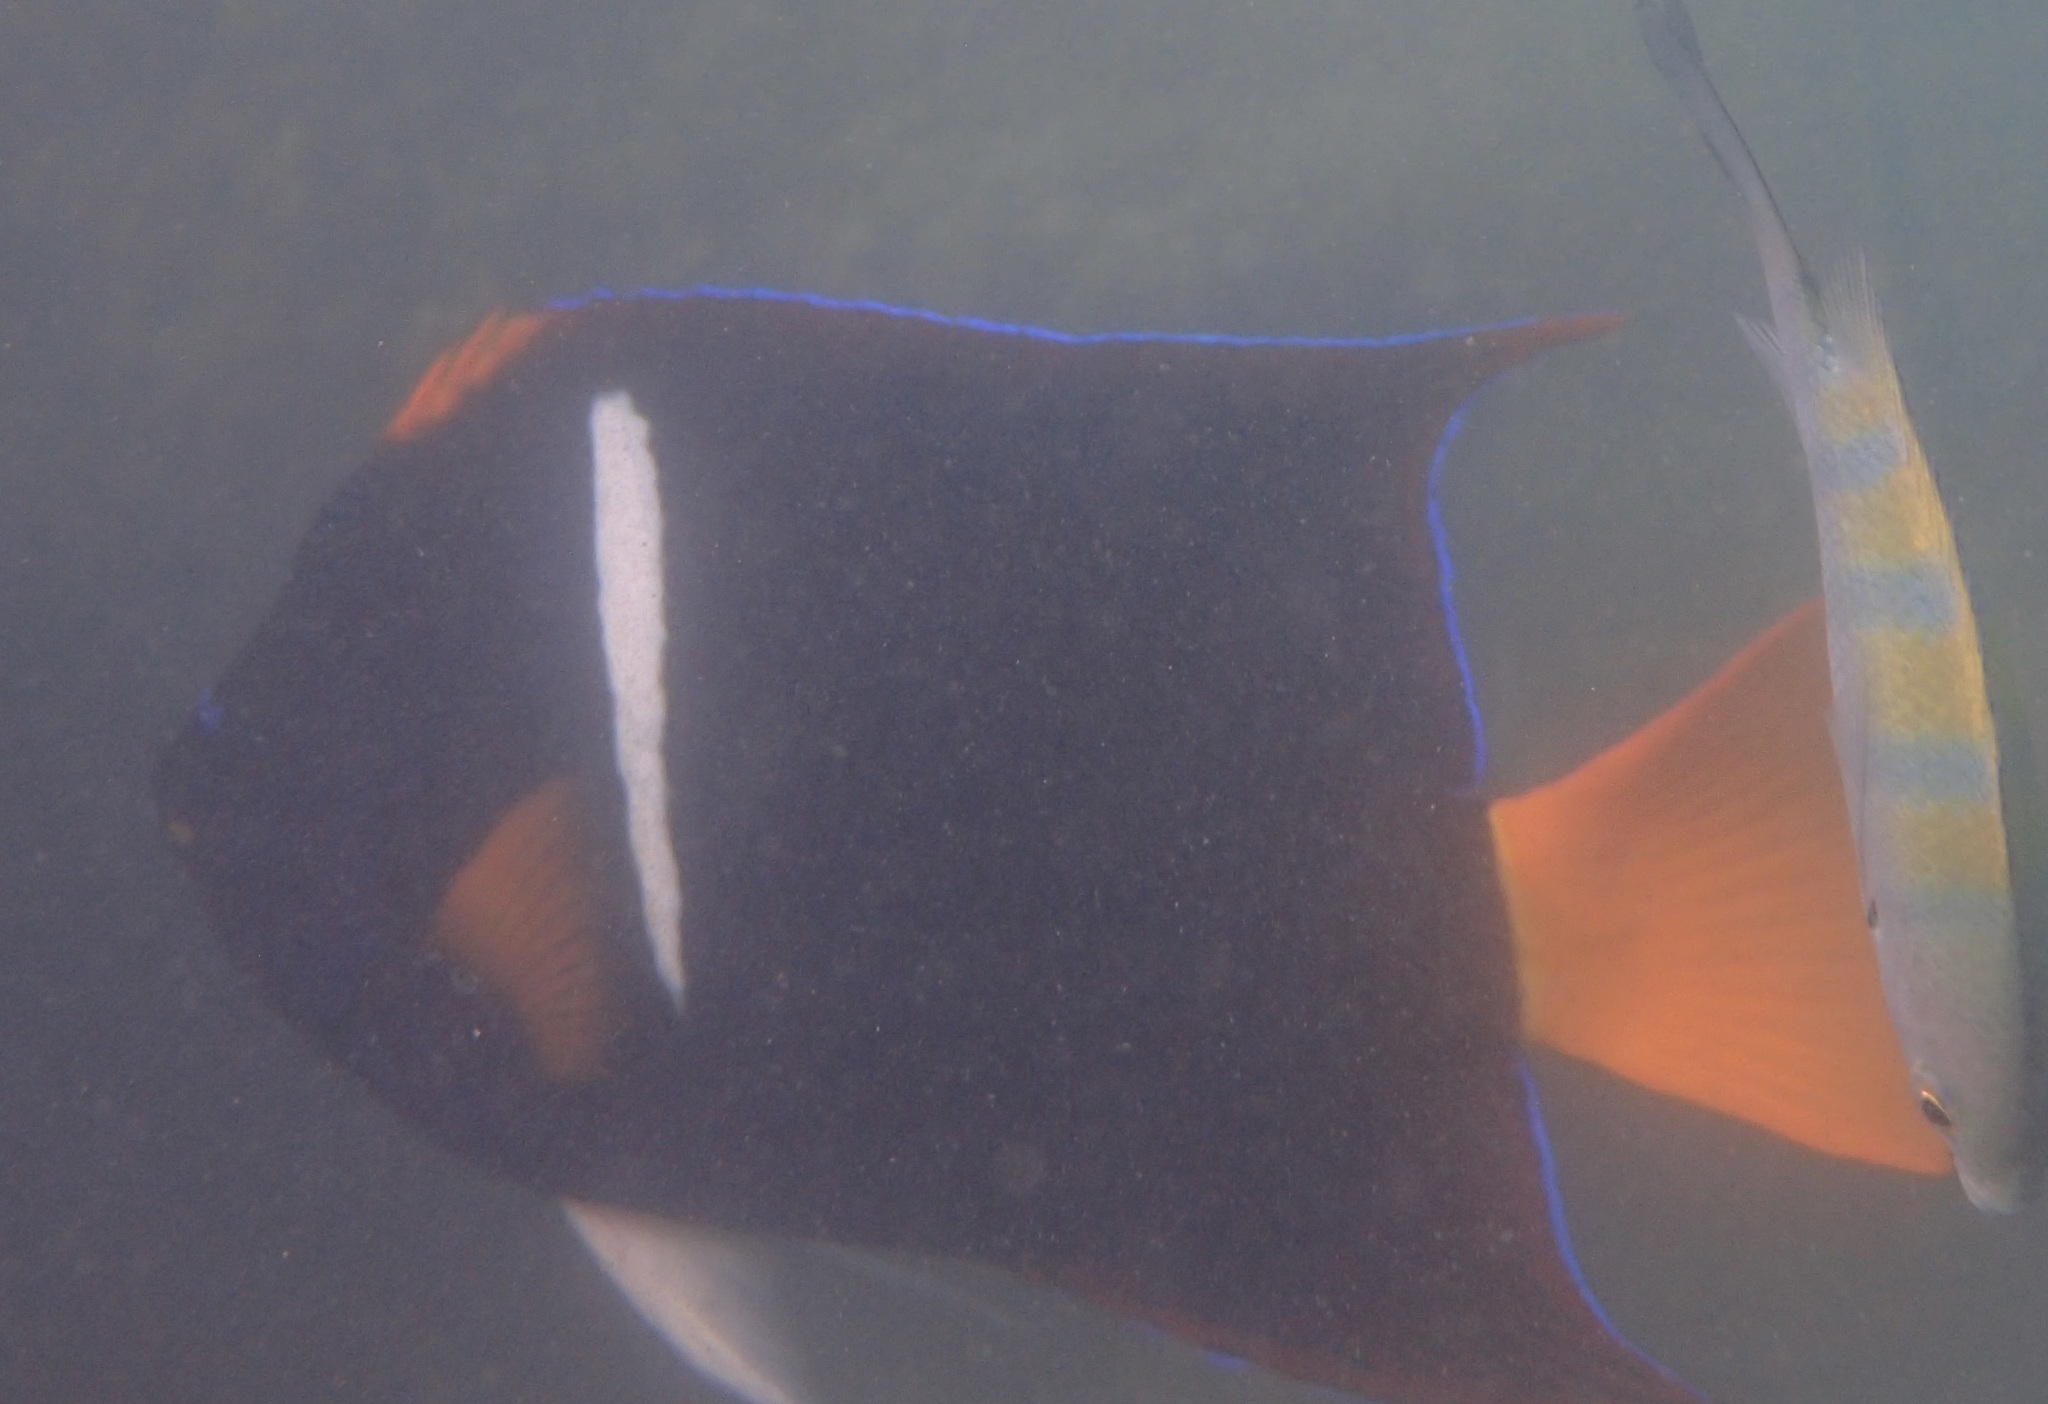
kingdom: Animalia
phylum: Chordata
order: Perciformes
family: Pomacanthidae
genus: Holacanthus
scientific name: Holacanthus passer
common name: King angelfish
